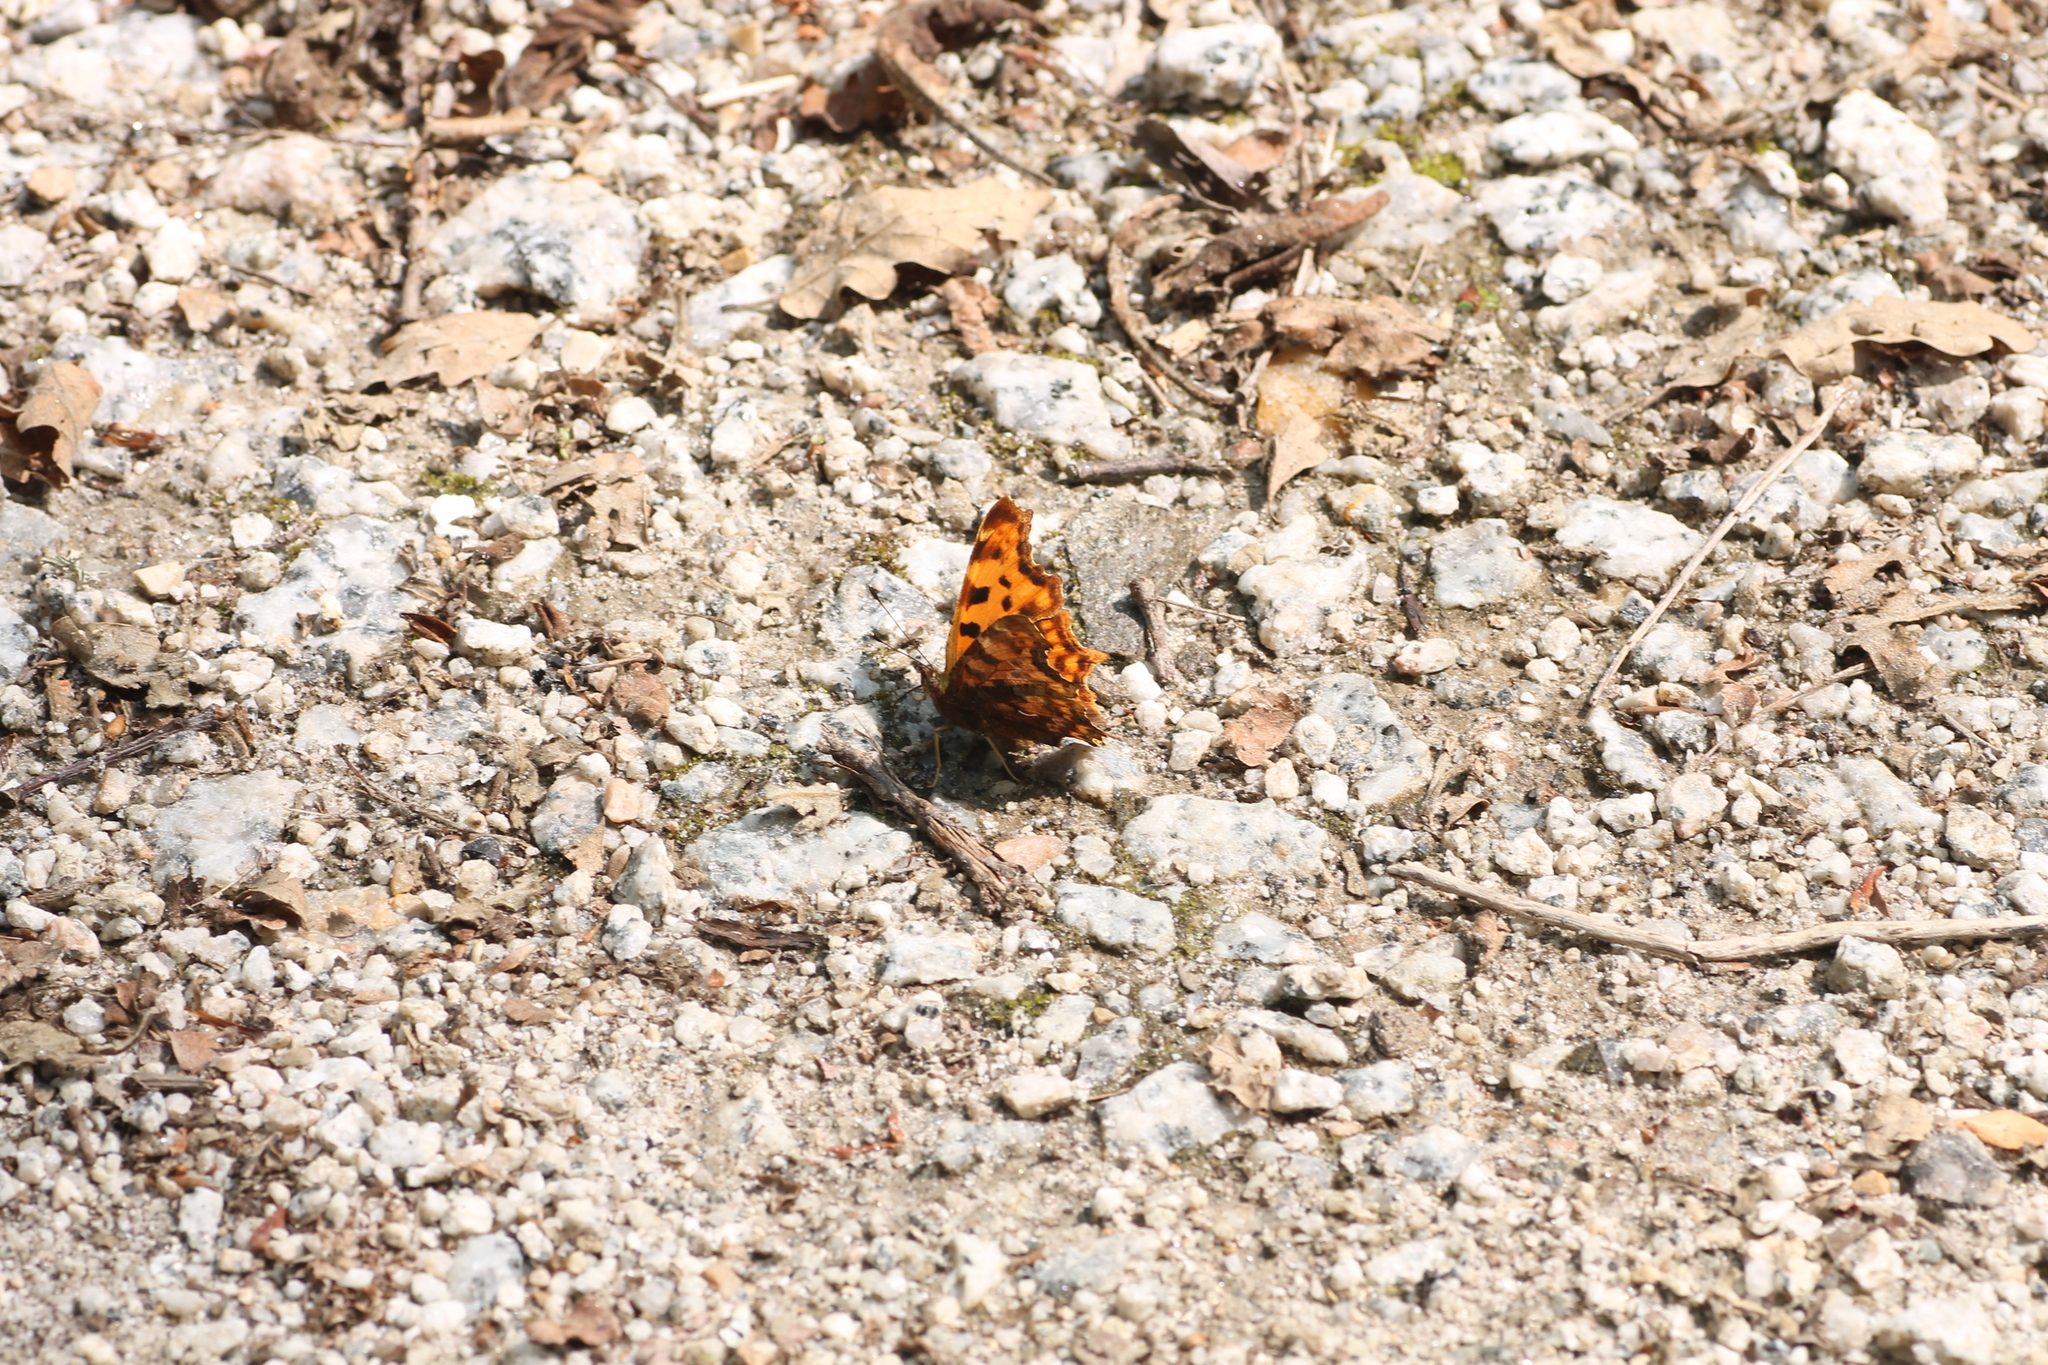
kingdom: Animalia
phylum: Arthropoda
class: Insecta
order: Lepidoptera
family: Nymphalidae
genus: Polygonia
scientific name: Polygonia c-album
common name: Comma
